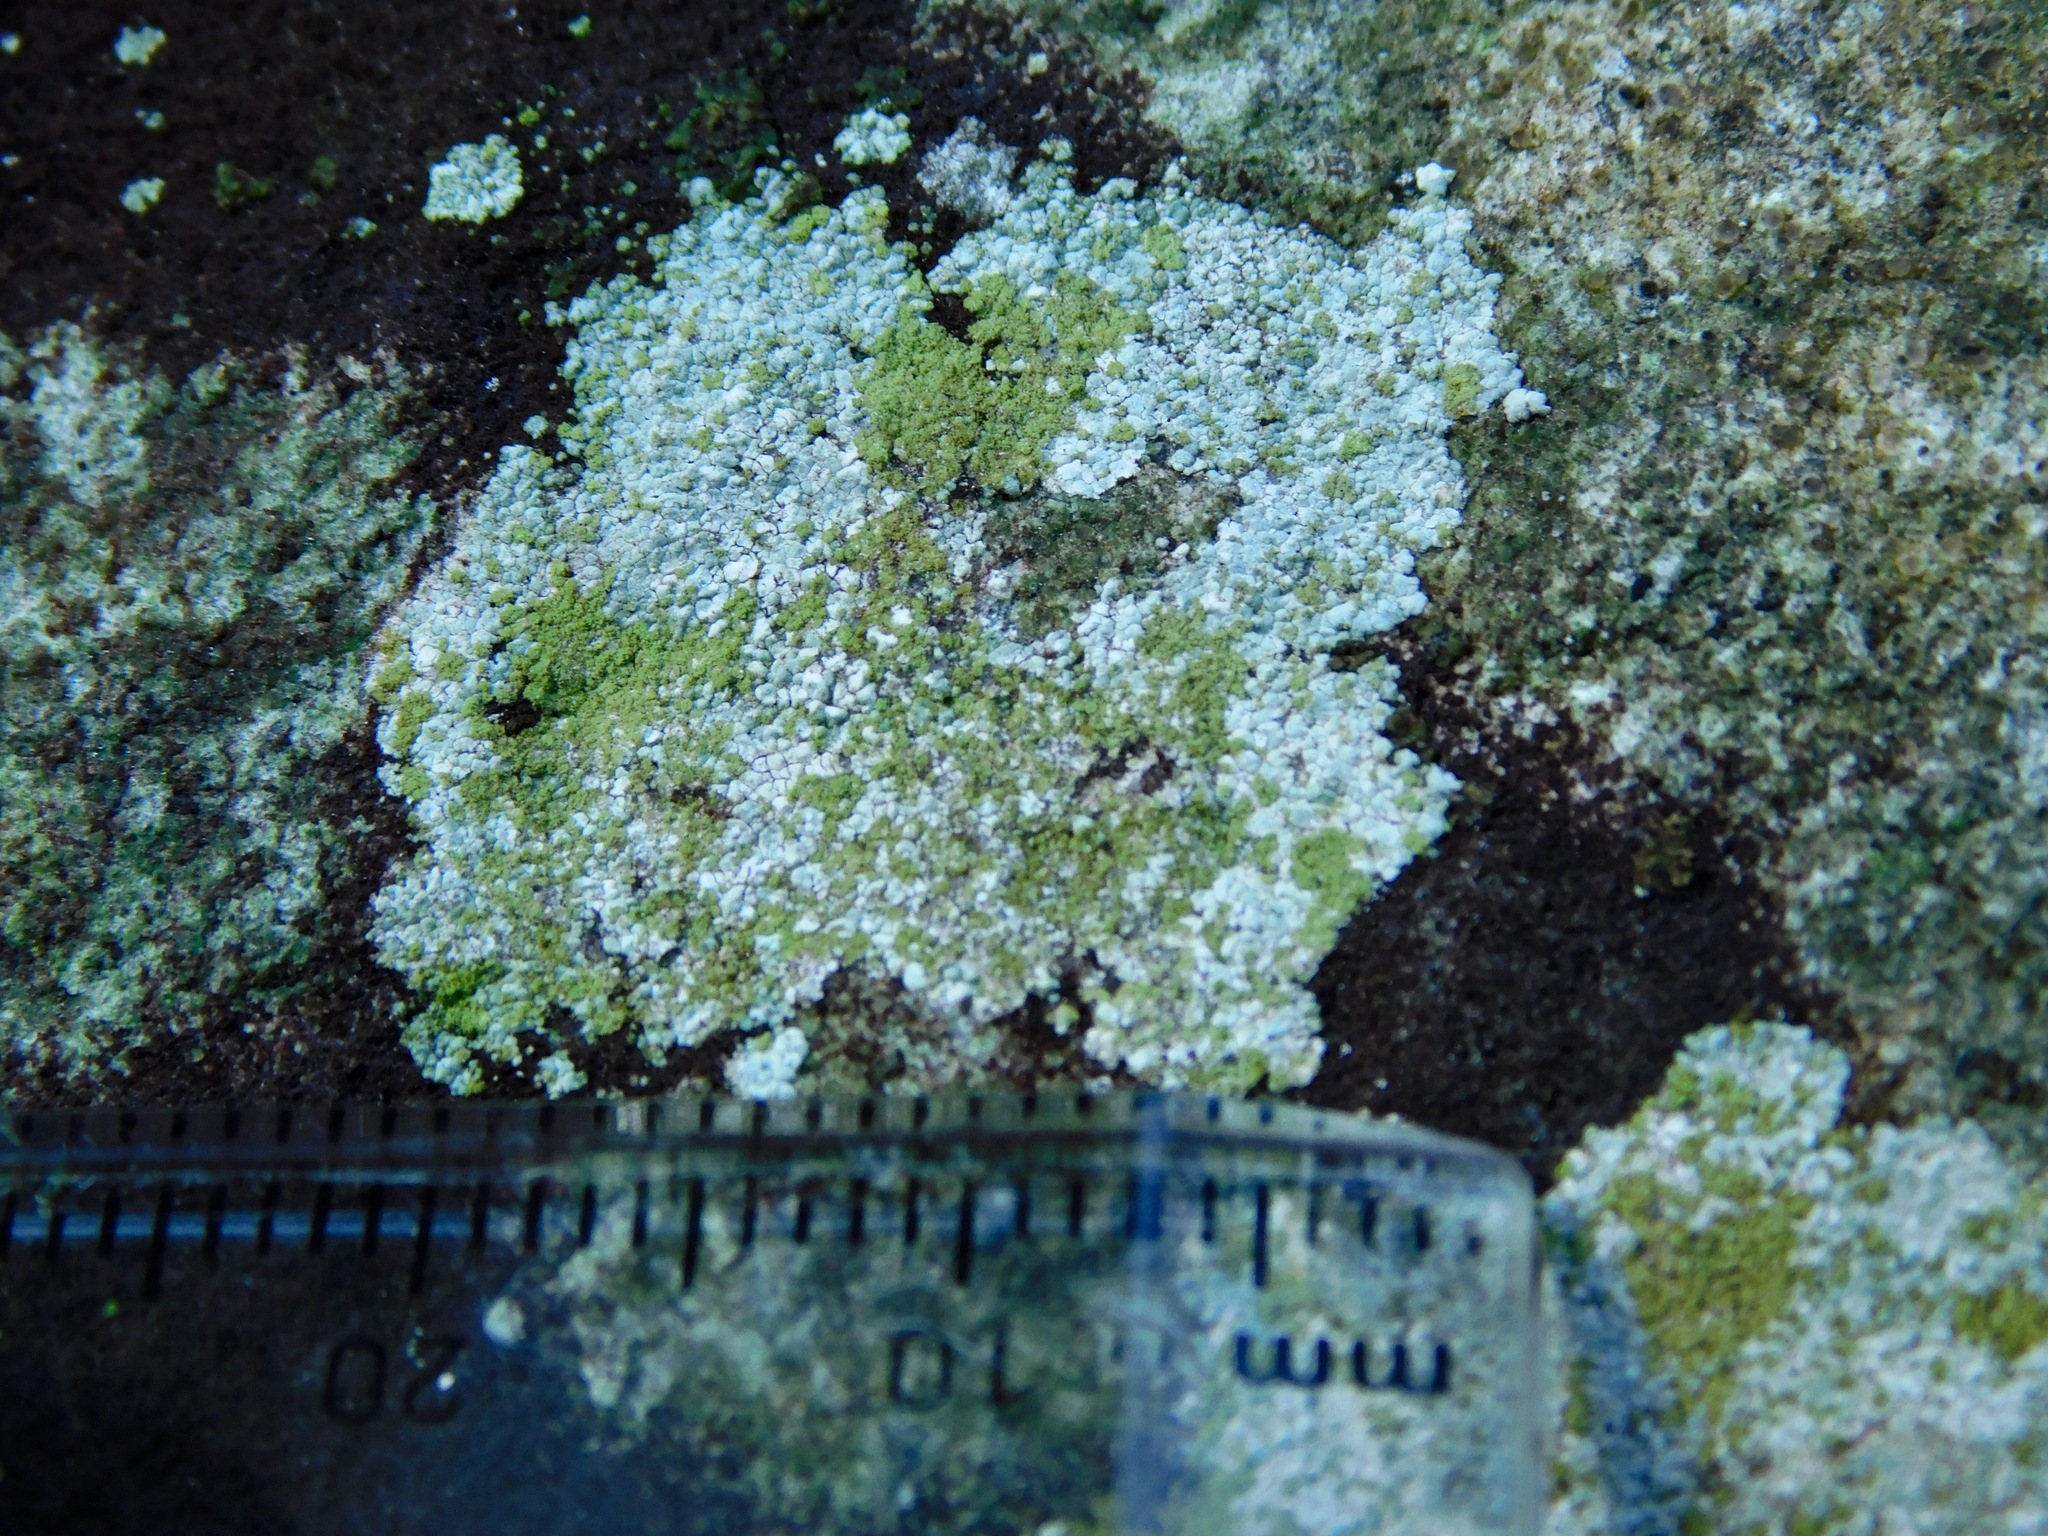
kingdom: Fungi
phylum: Ascomycota
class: Lecanoromycetes
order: Baeomycetales
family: Trapeliaceae
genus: Kleopowiella
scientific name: Kleopowiella placodioides
